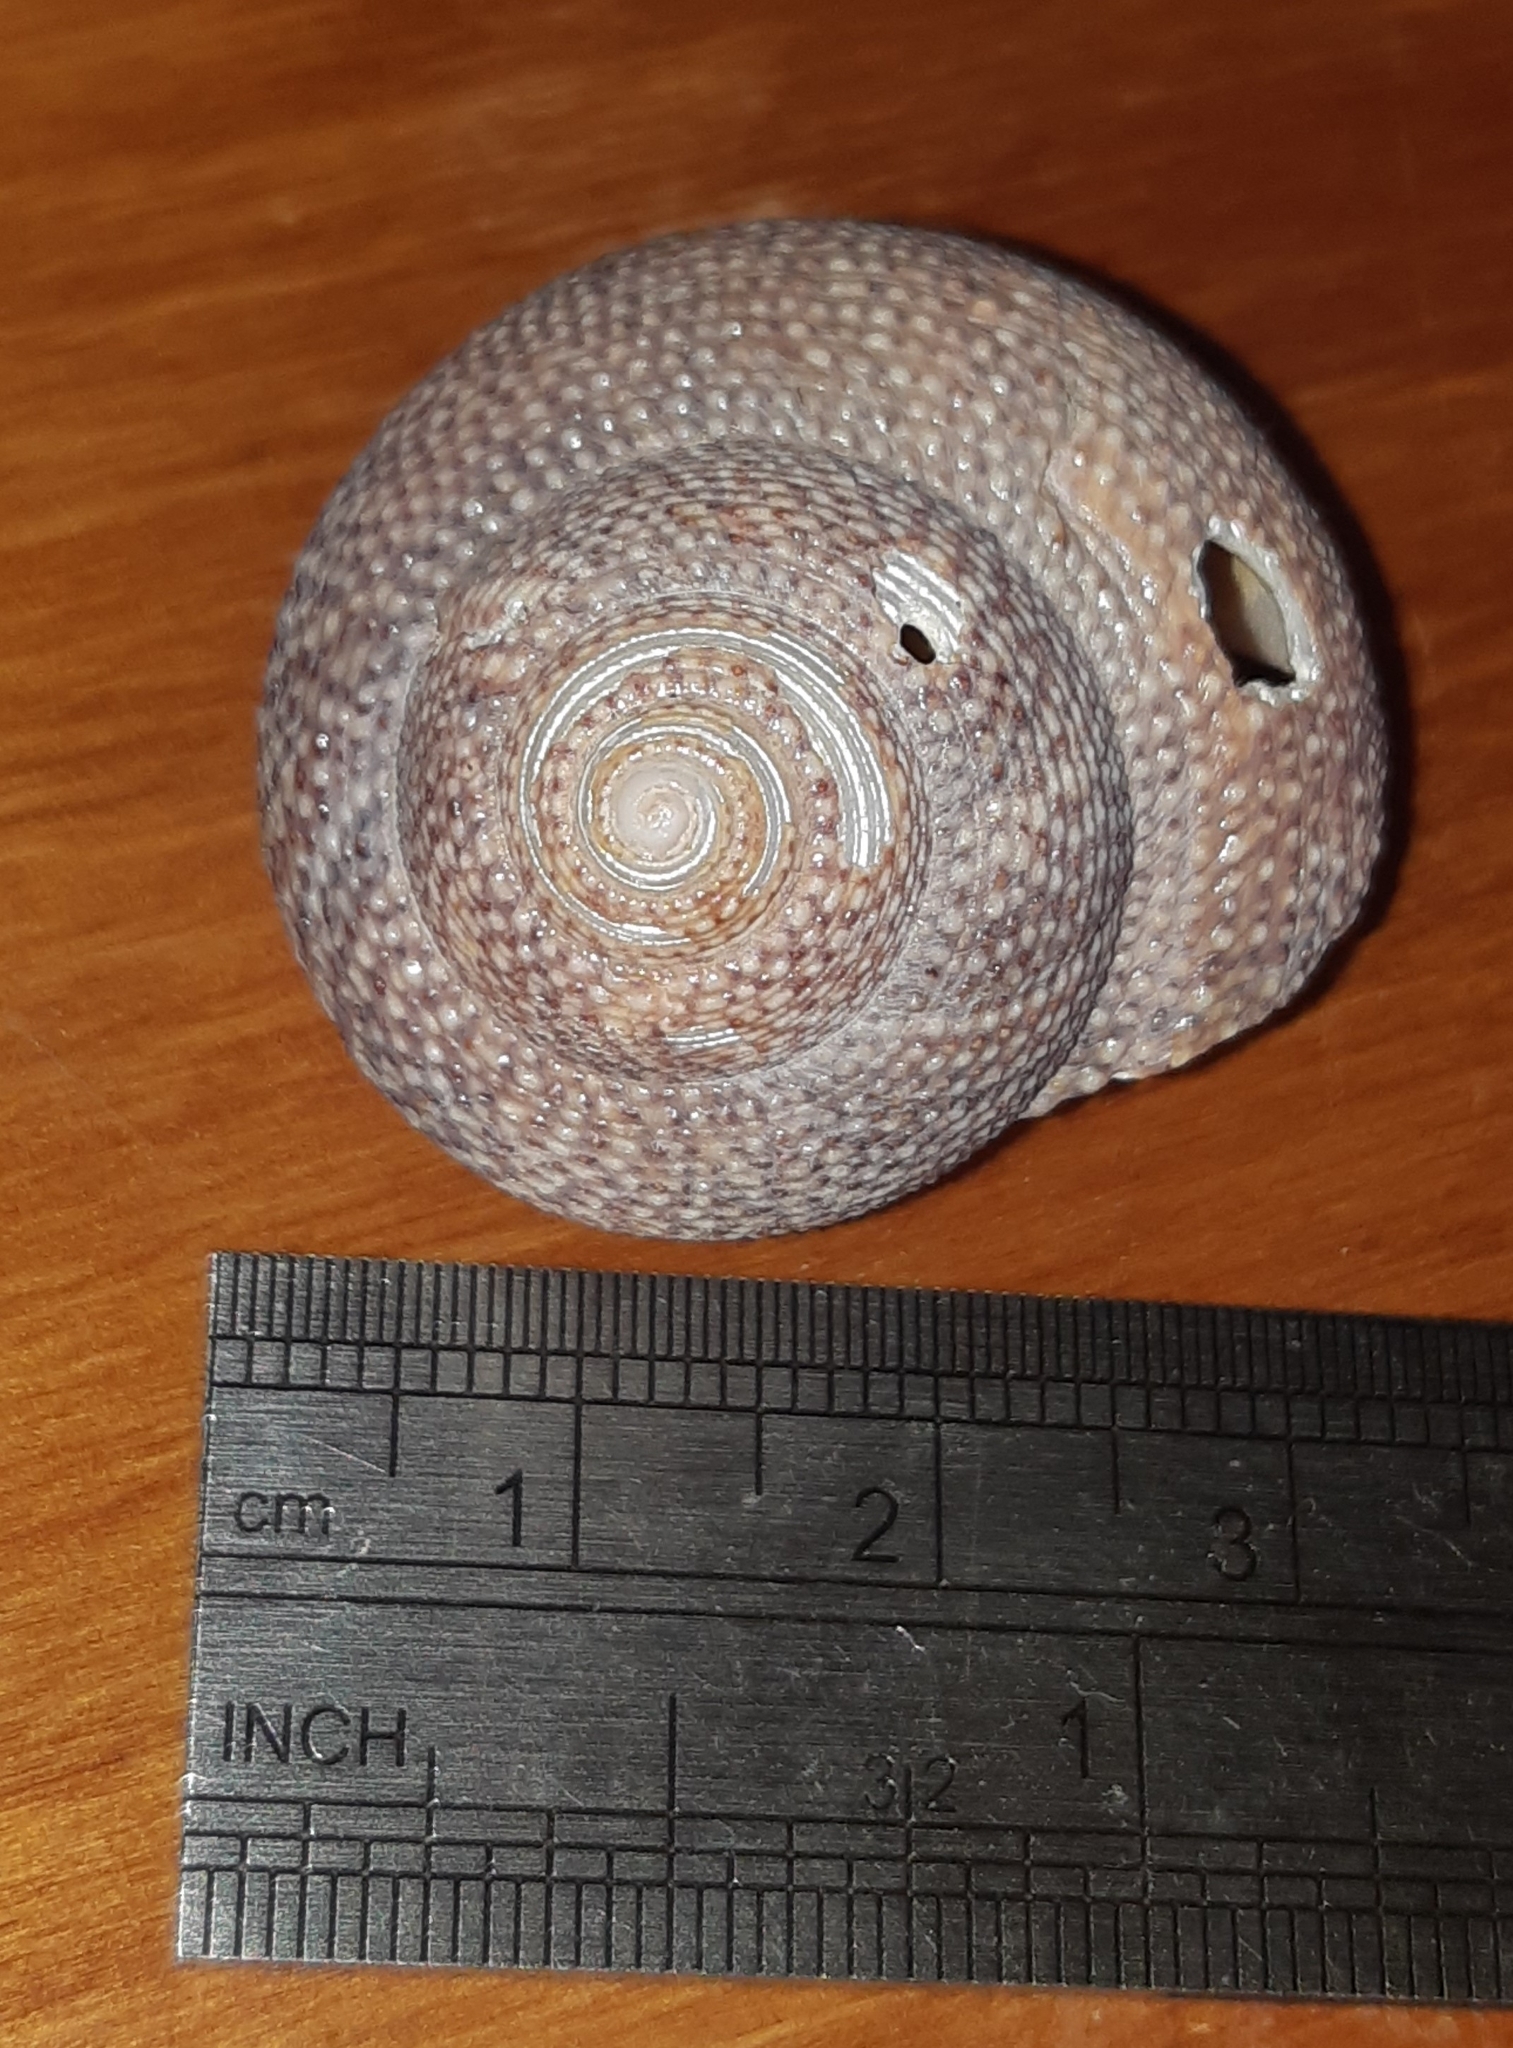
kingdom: Animalia
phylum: Mollusca
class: Gastropoda
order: Trochida
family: Calliostomatidae
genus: Maurea
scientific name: Maurea punctulata
